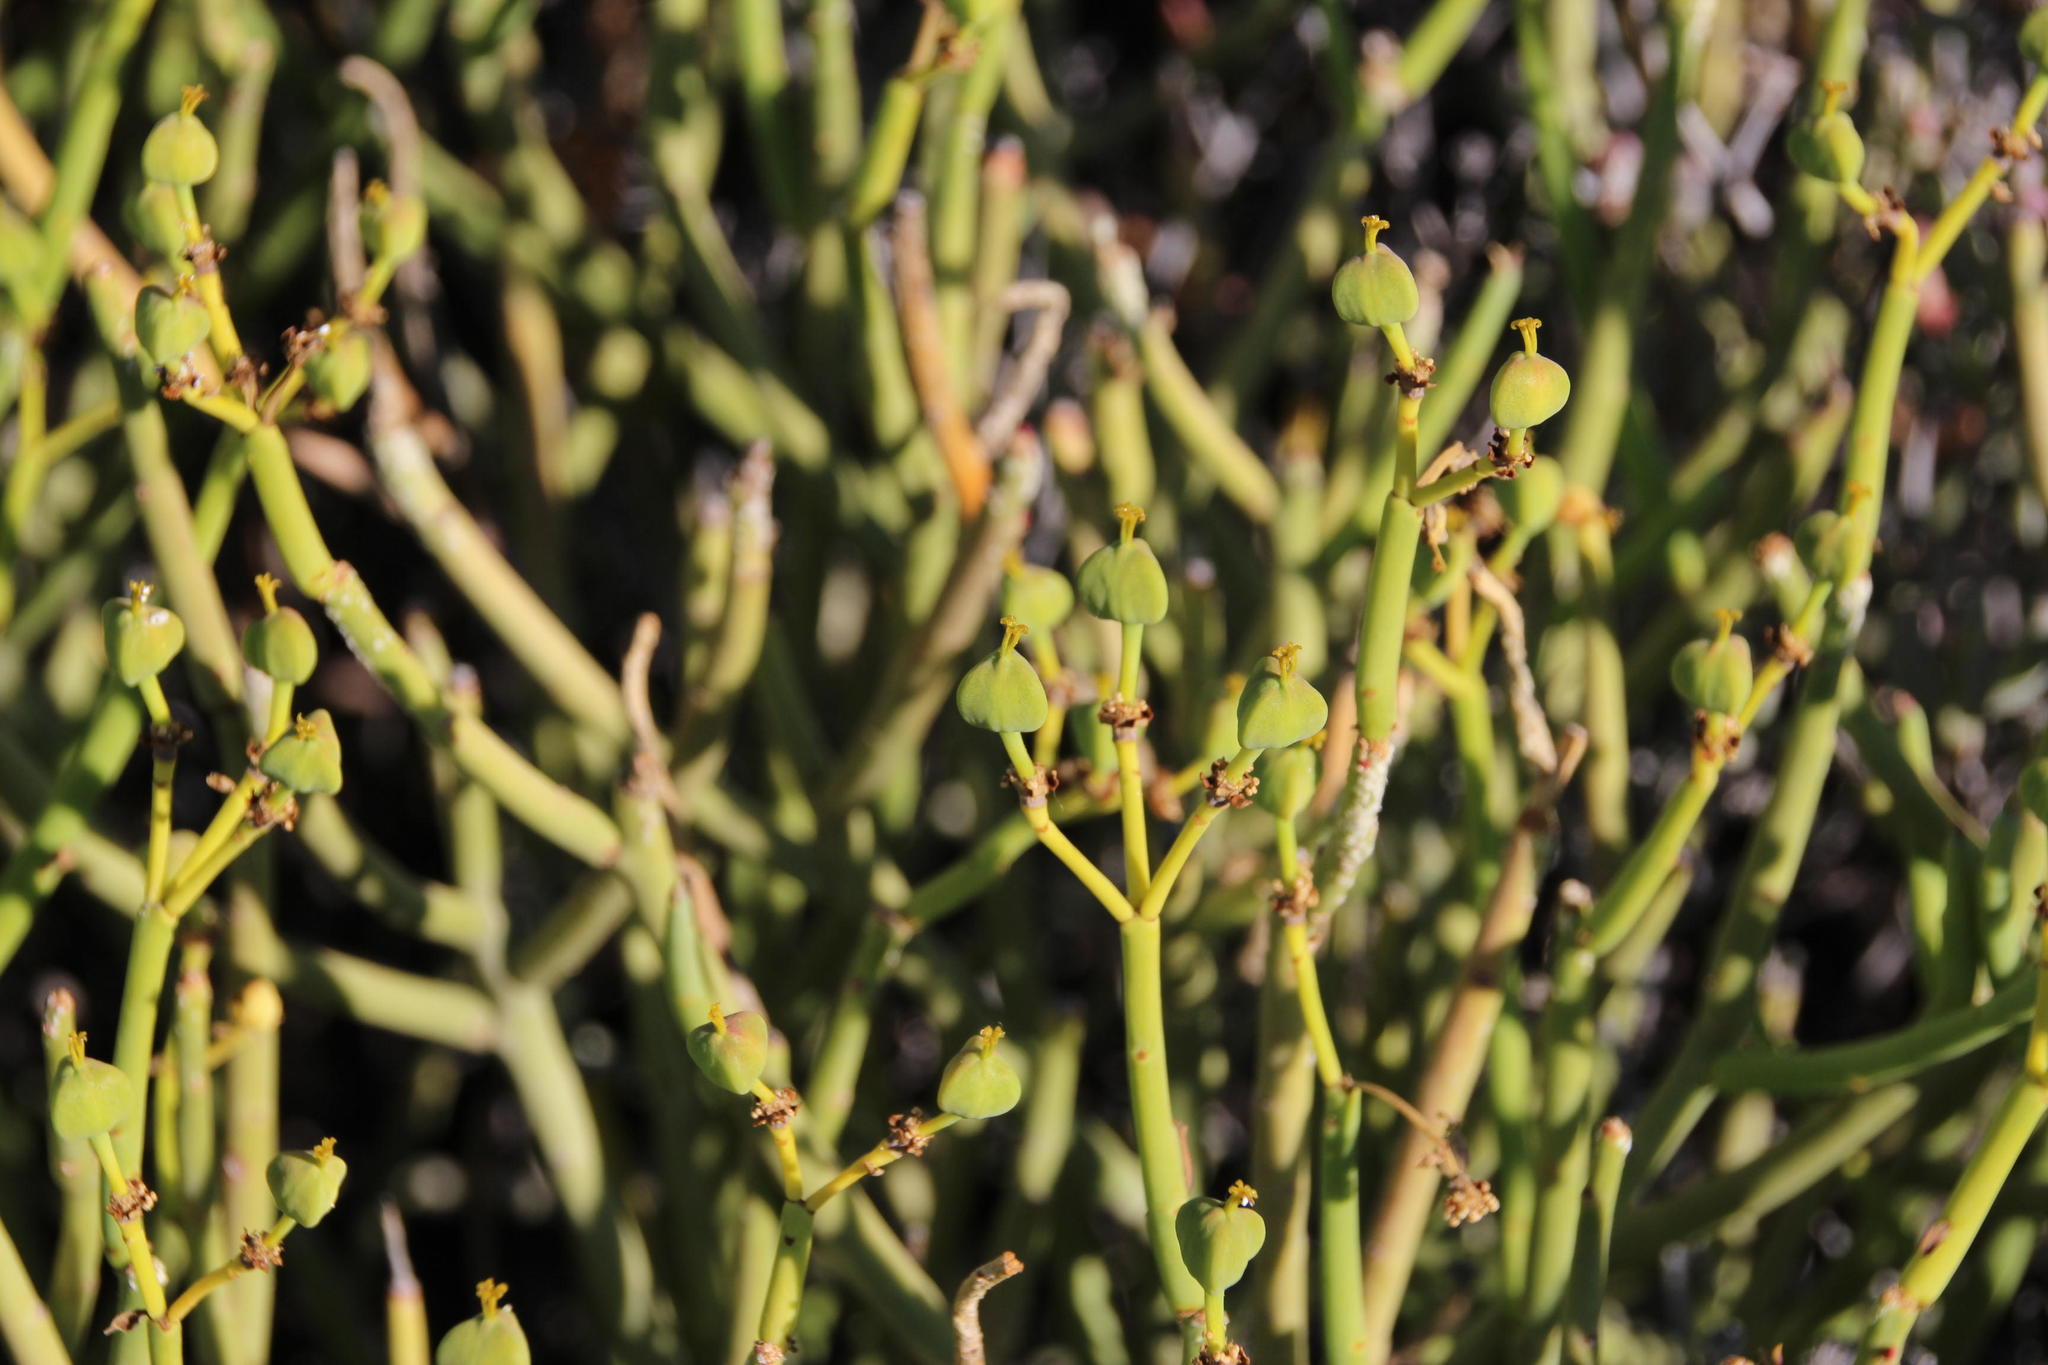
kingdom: Plantae
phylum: Tracheophyta
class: Magnoliopsida
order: Malpighiales
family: Euphorbiaceae
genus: Euphorbia
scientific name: Euphorbia mauritanica
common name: Jackal's-food
